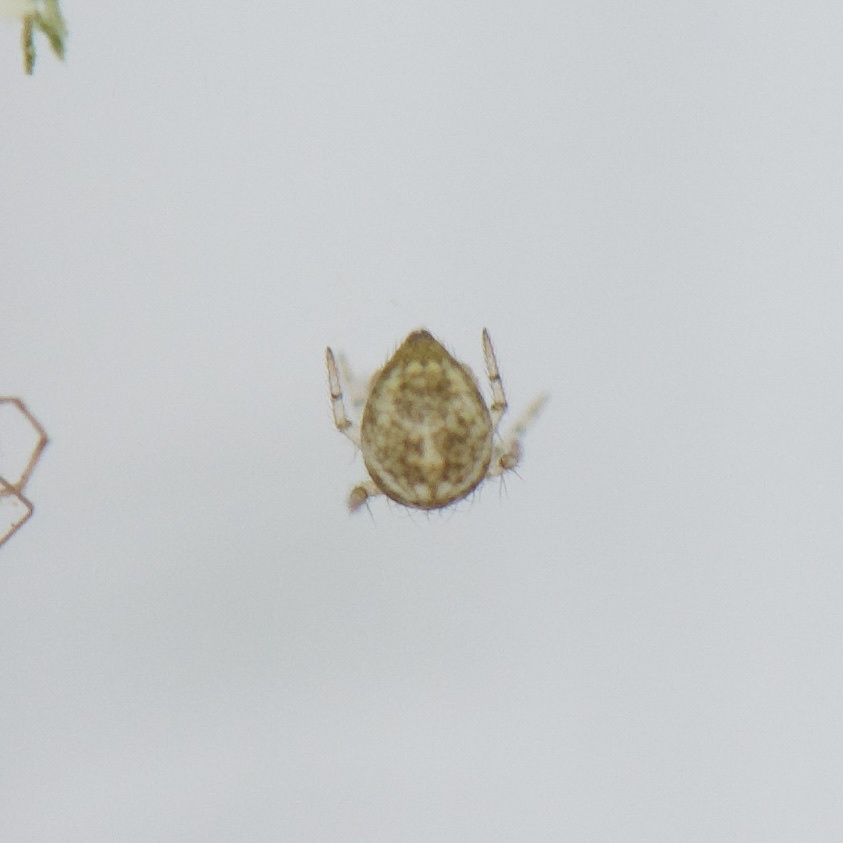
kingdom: Animalia
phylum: Arthropoda
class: Arachnida
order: Araneae
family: Theridiidae
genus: Parasteatoda
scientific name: Parasteatoda tepidariorum
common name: Common house spider
